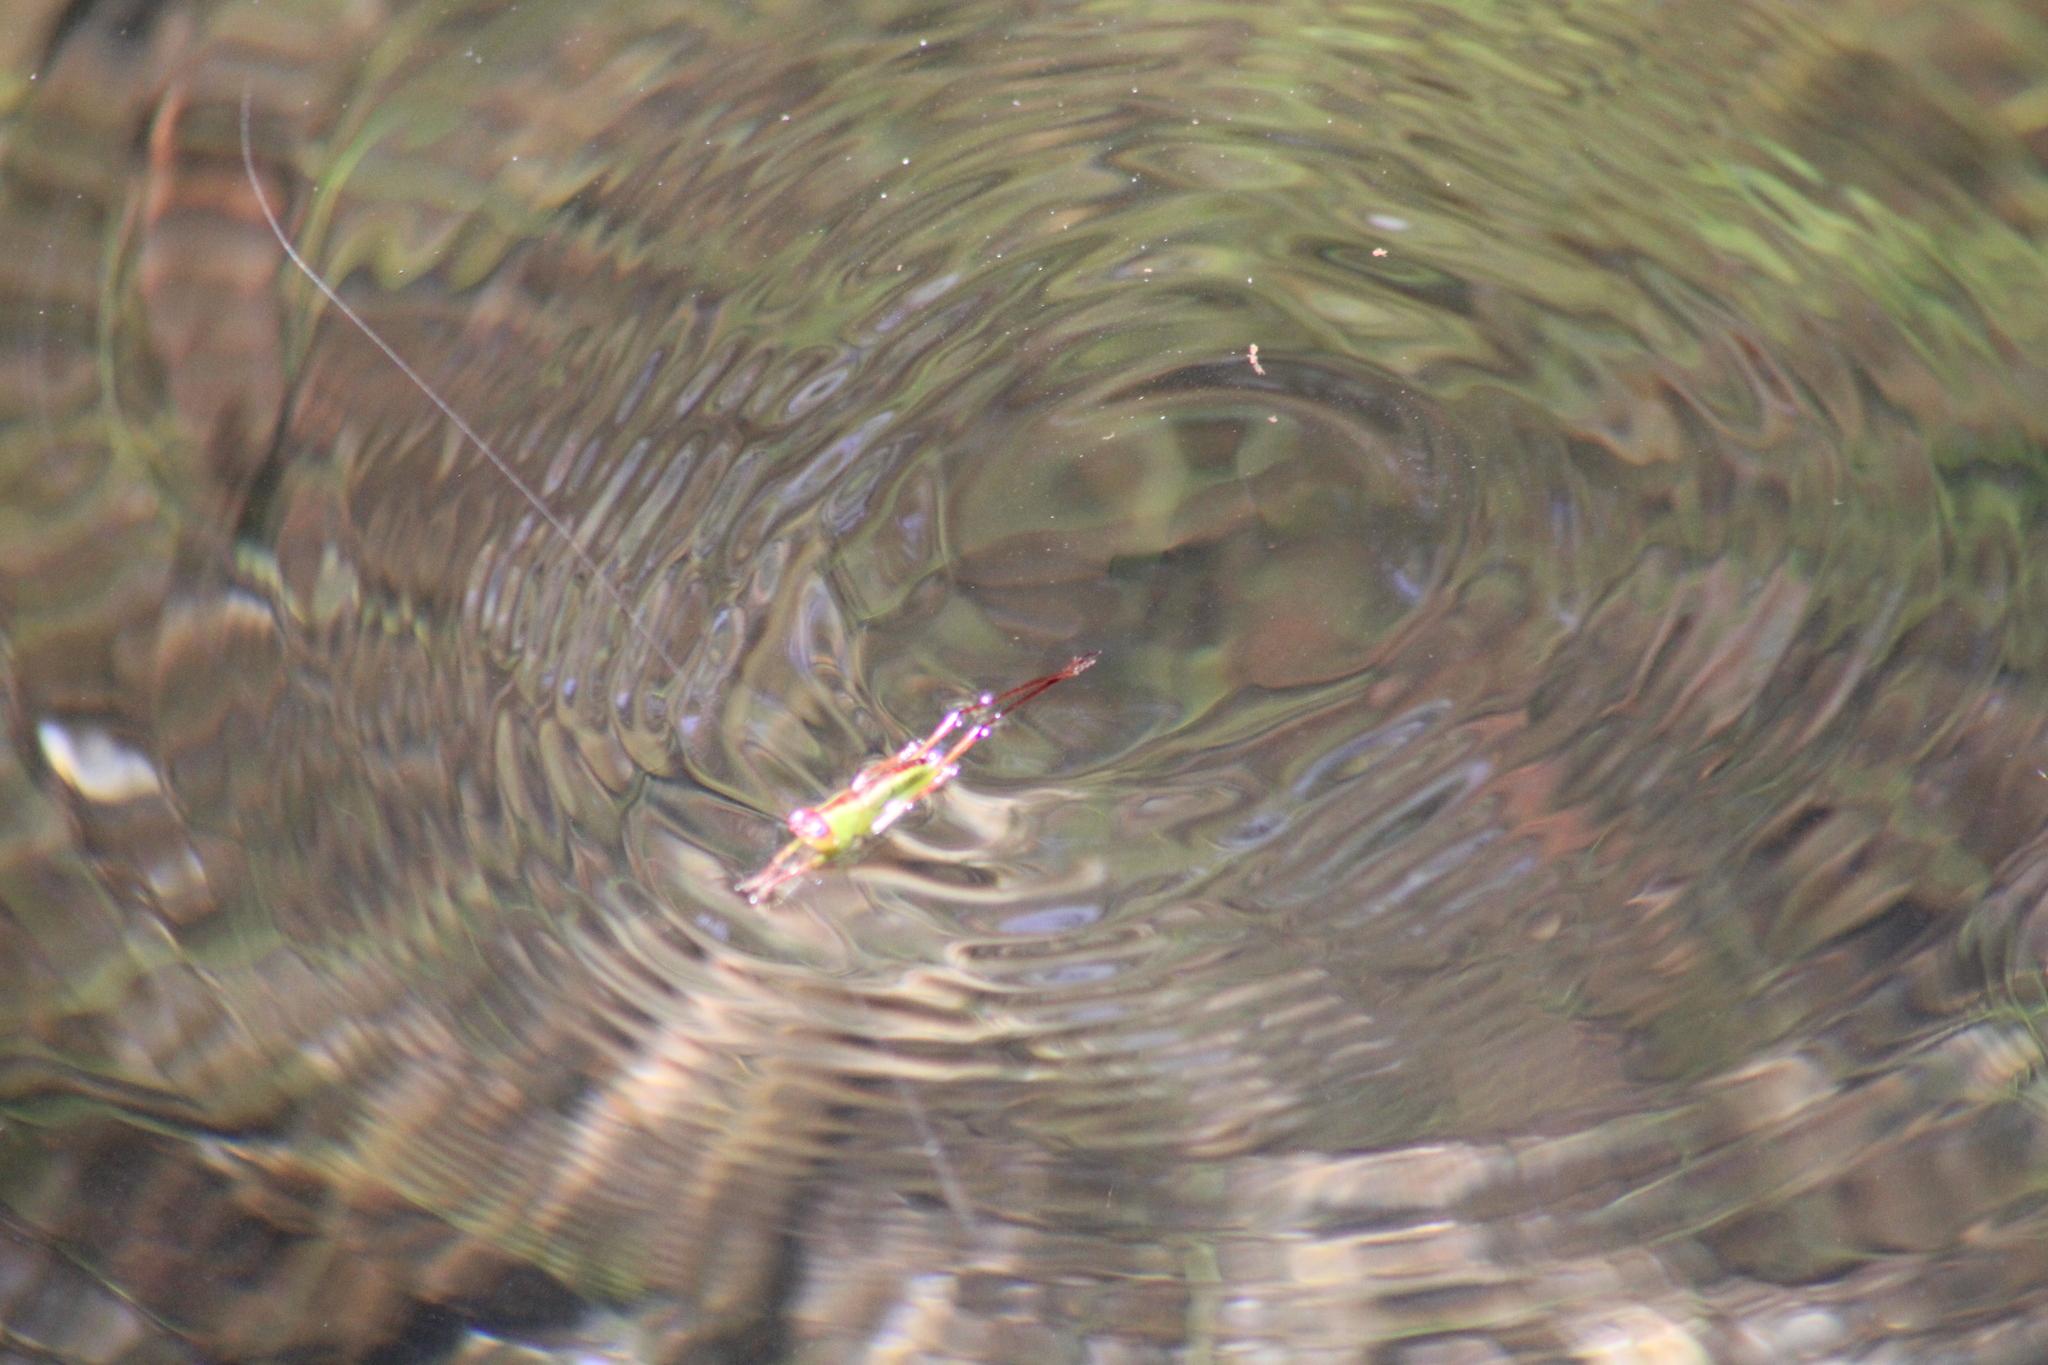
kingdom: Animalia
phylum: Arthropoda
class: Insecta
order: Orthoptera
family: Tettigoniidae
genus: Orchelimum
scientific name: Orchelimum pulchellum
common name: Handsome meadow katydid
